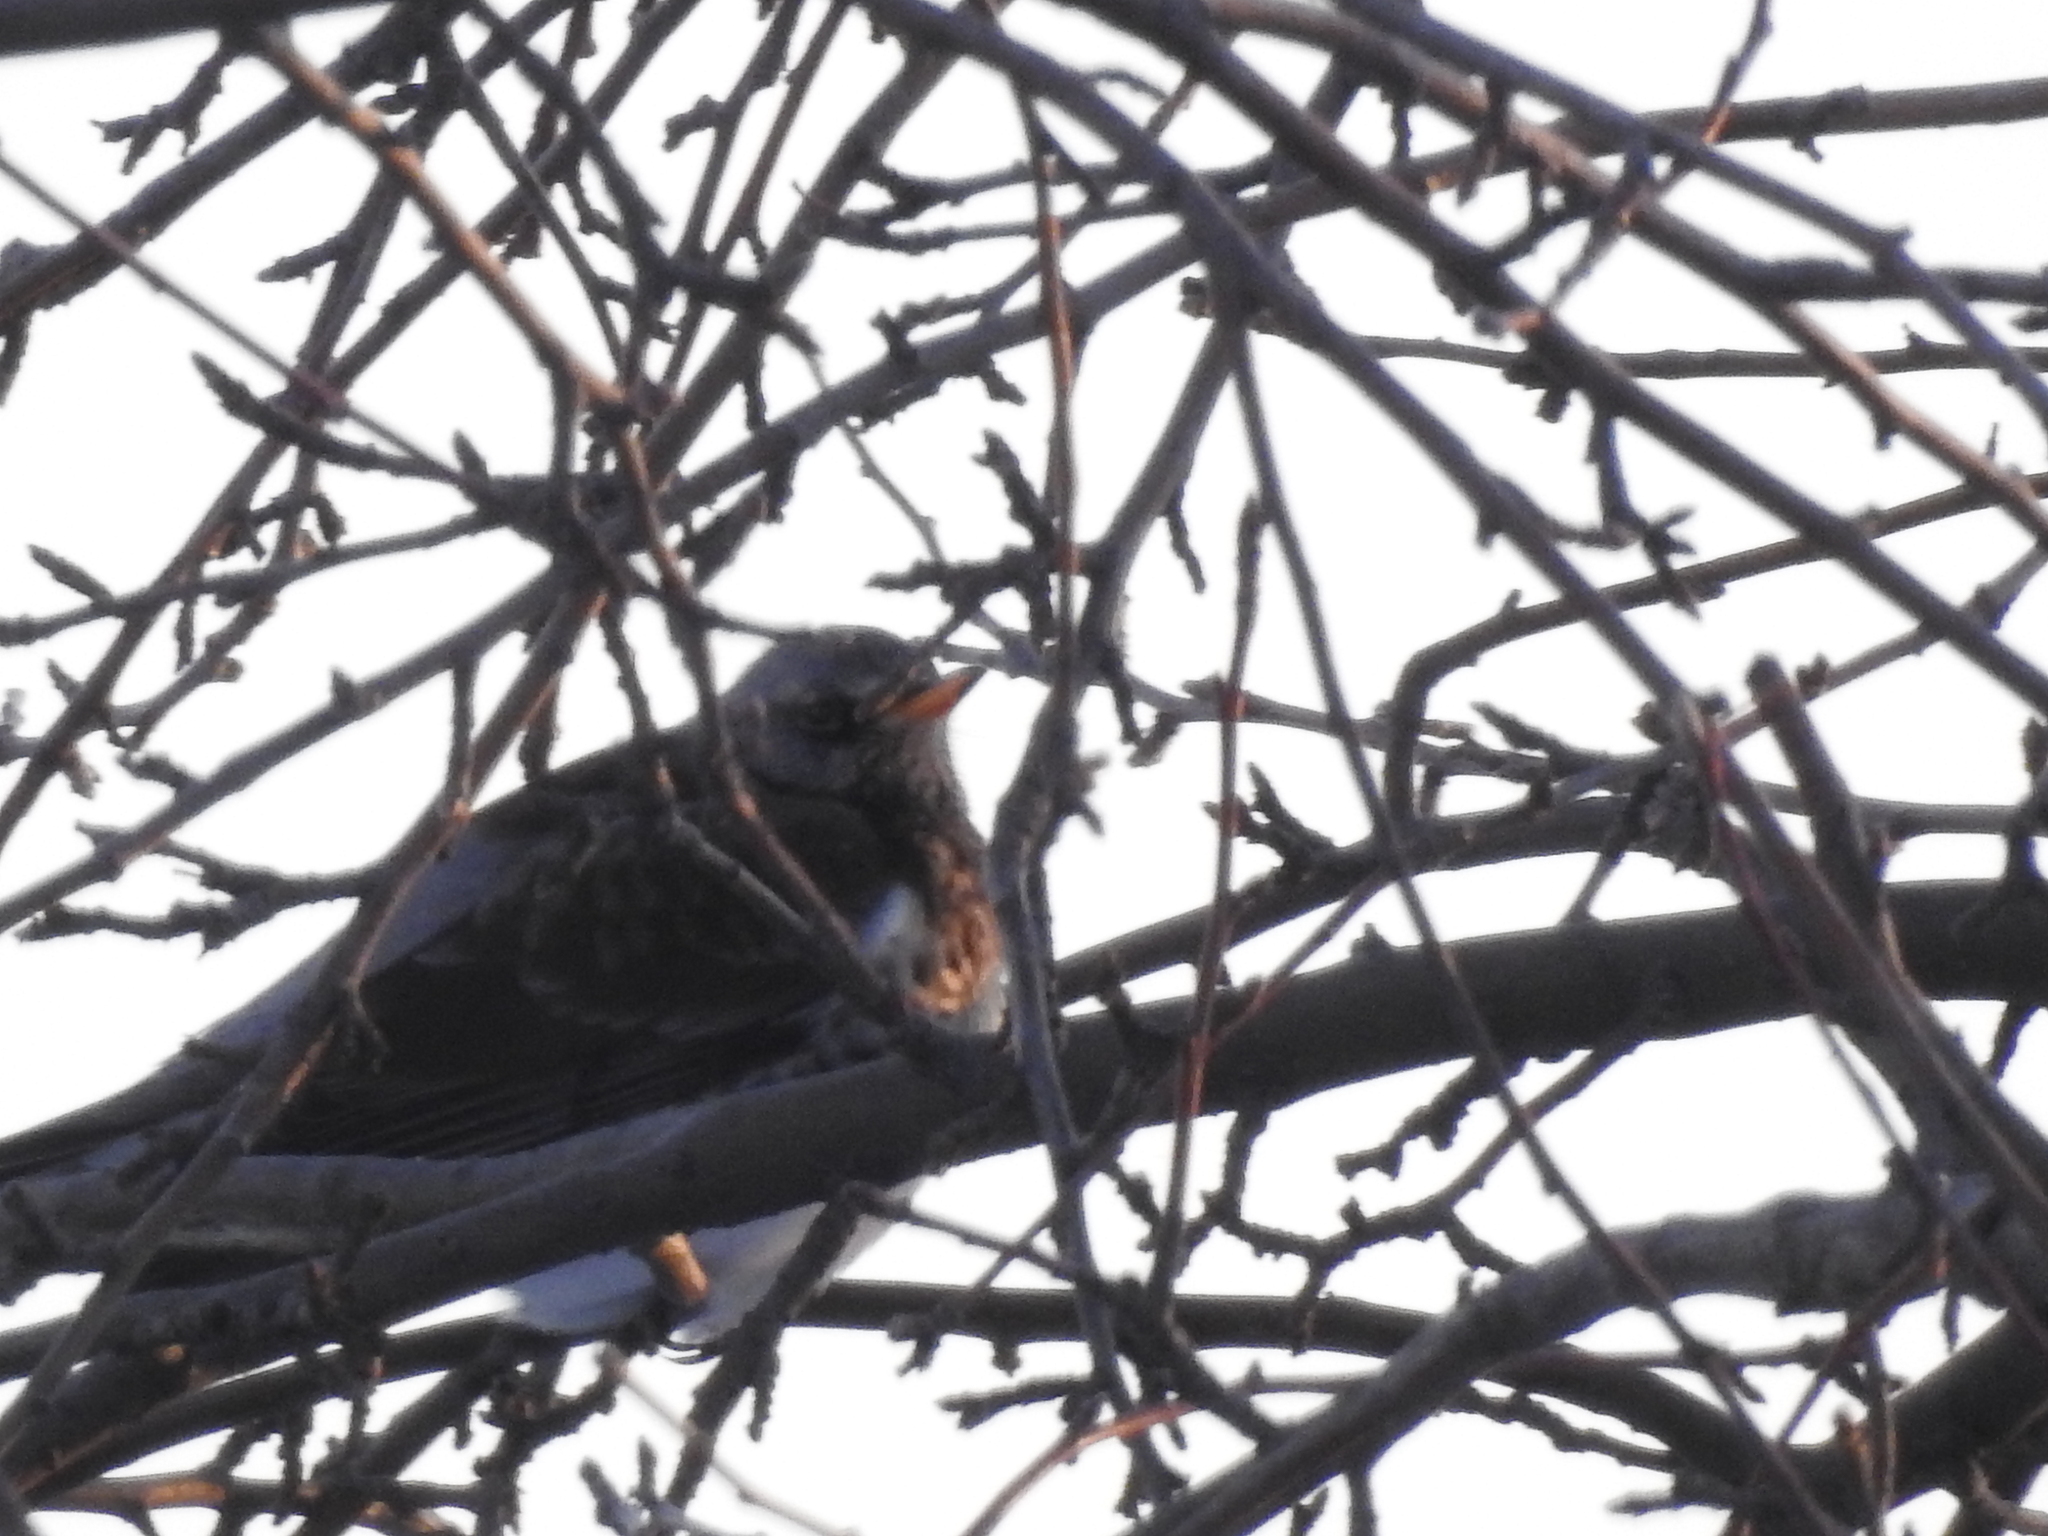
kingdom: Animalia
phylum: Chordata
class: Aves
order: Passeriformes
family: Turdidae
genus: Turdus
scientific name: Turdus pilaris
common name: Fieldfare
